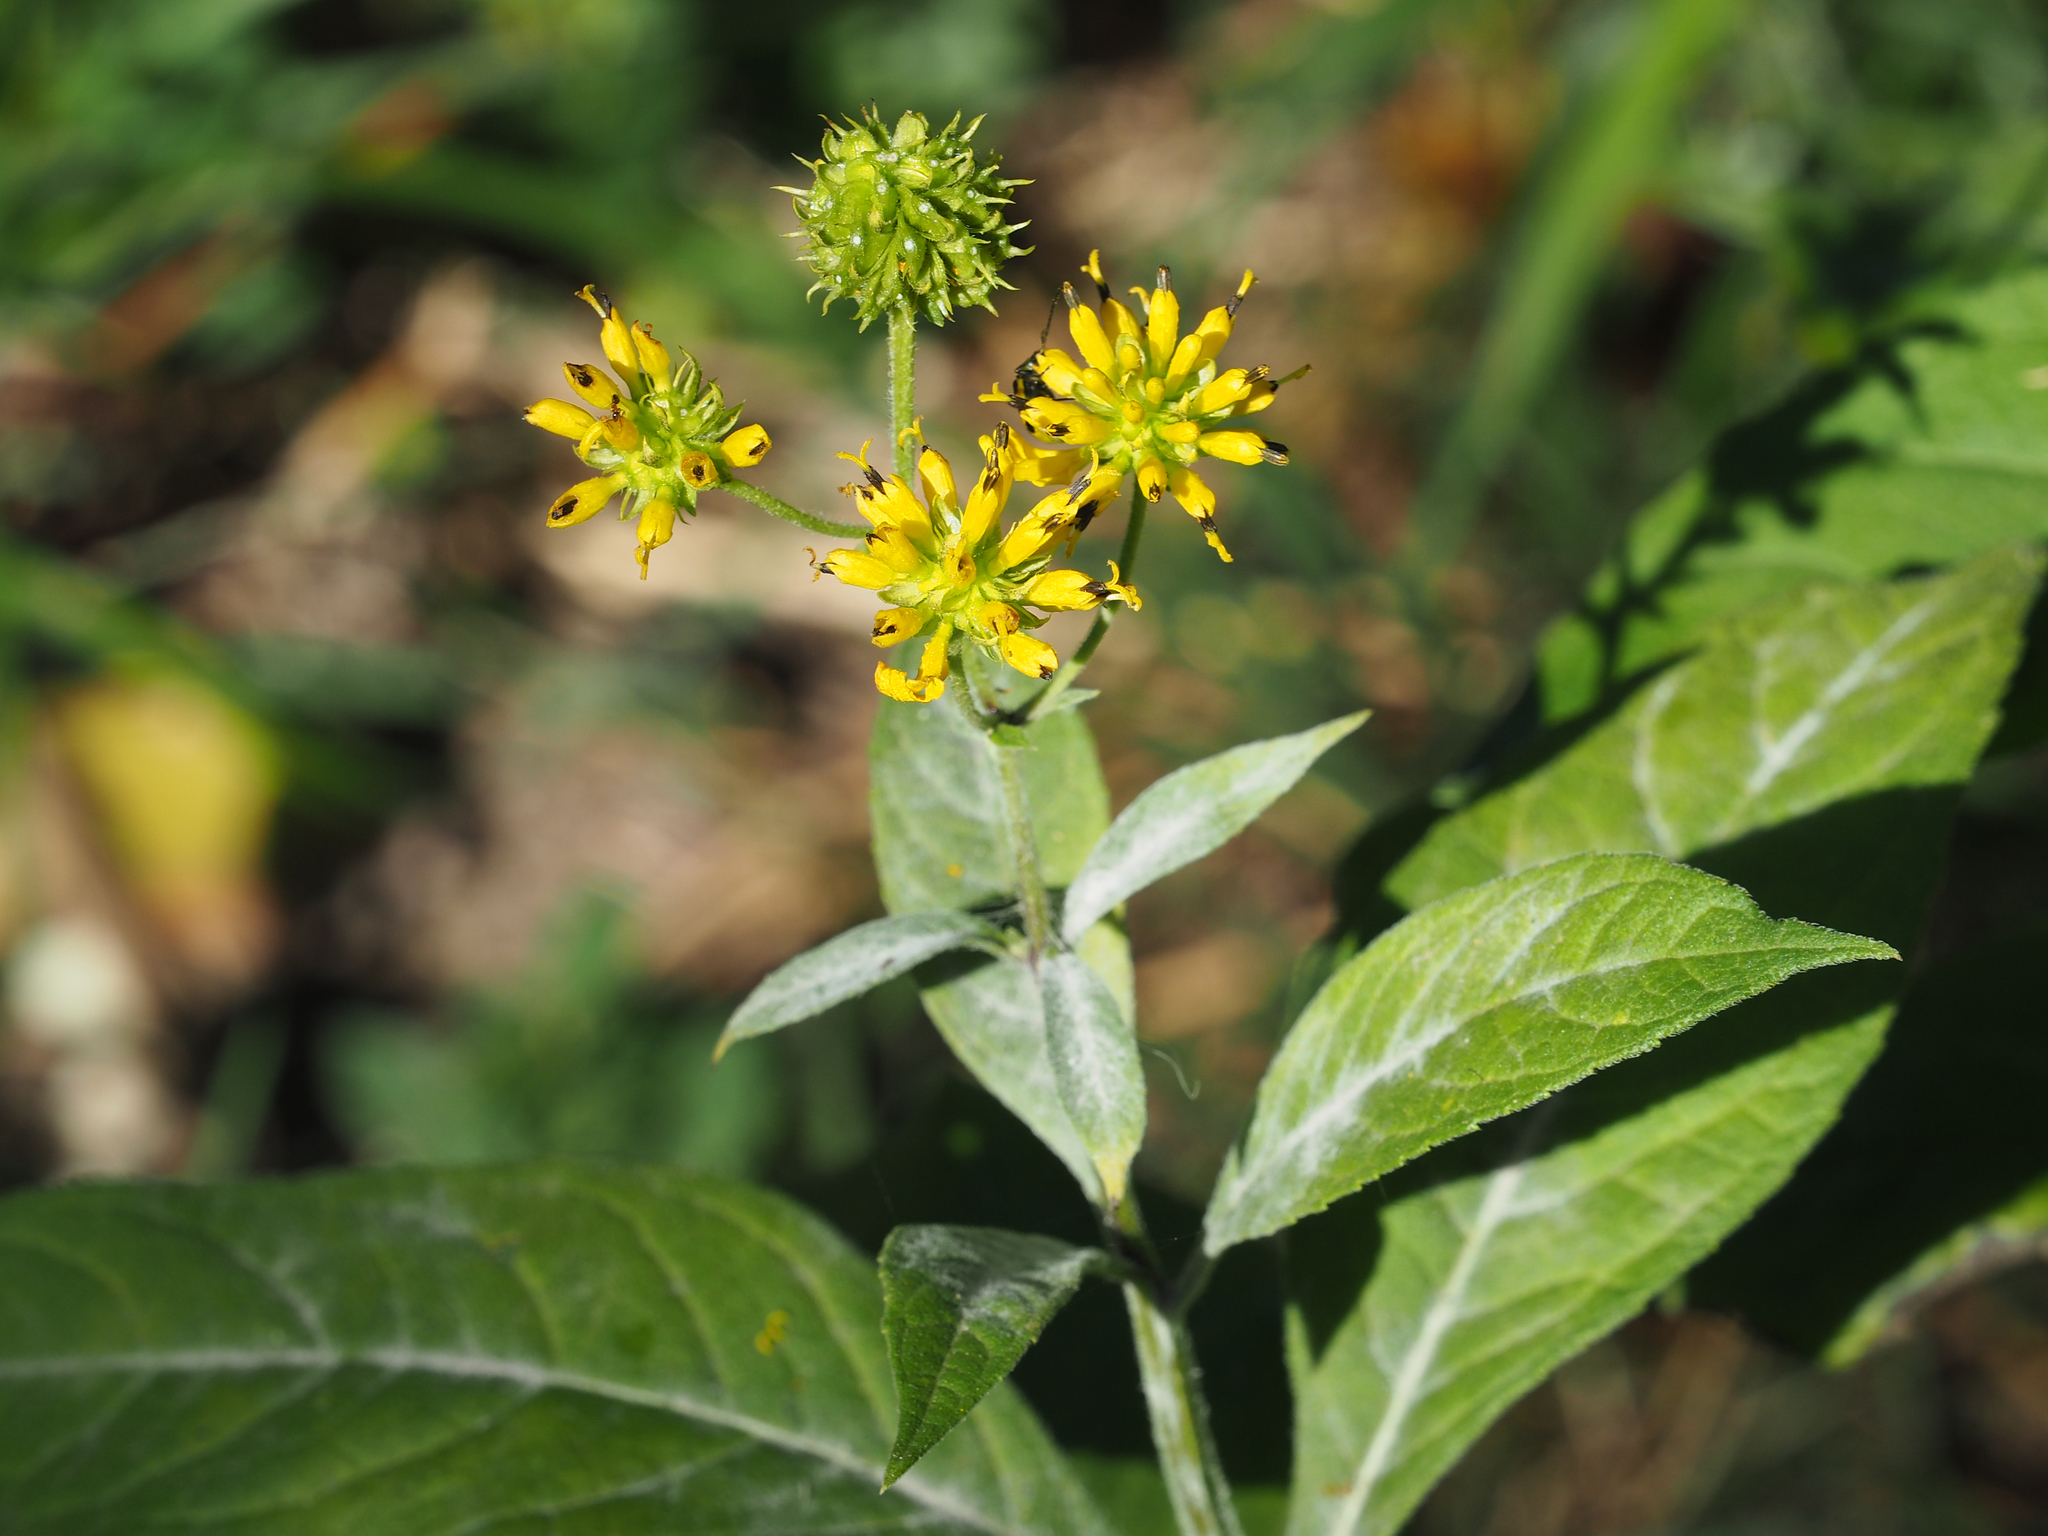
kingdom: Plantae
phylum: Tracheophyta
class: Magnoliopsida
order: Asterales
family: Asteraceae
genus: Verbesina
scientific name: Verbesina alternifolia
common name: Wingstem
